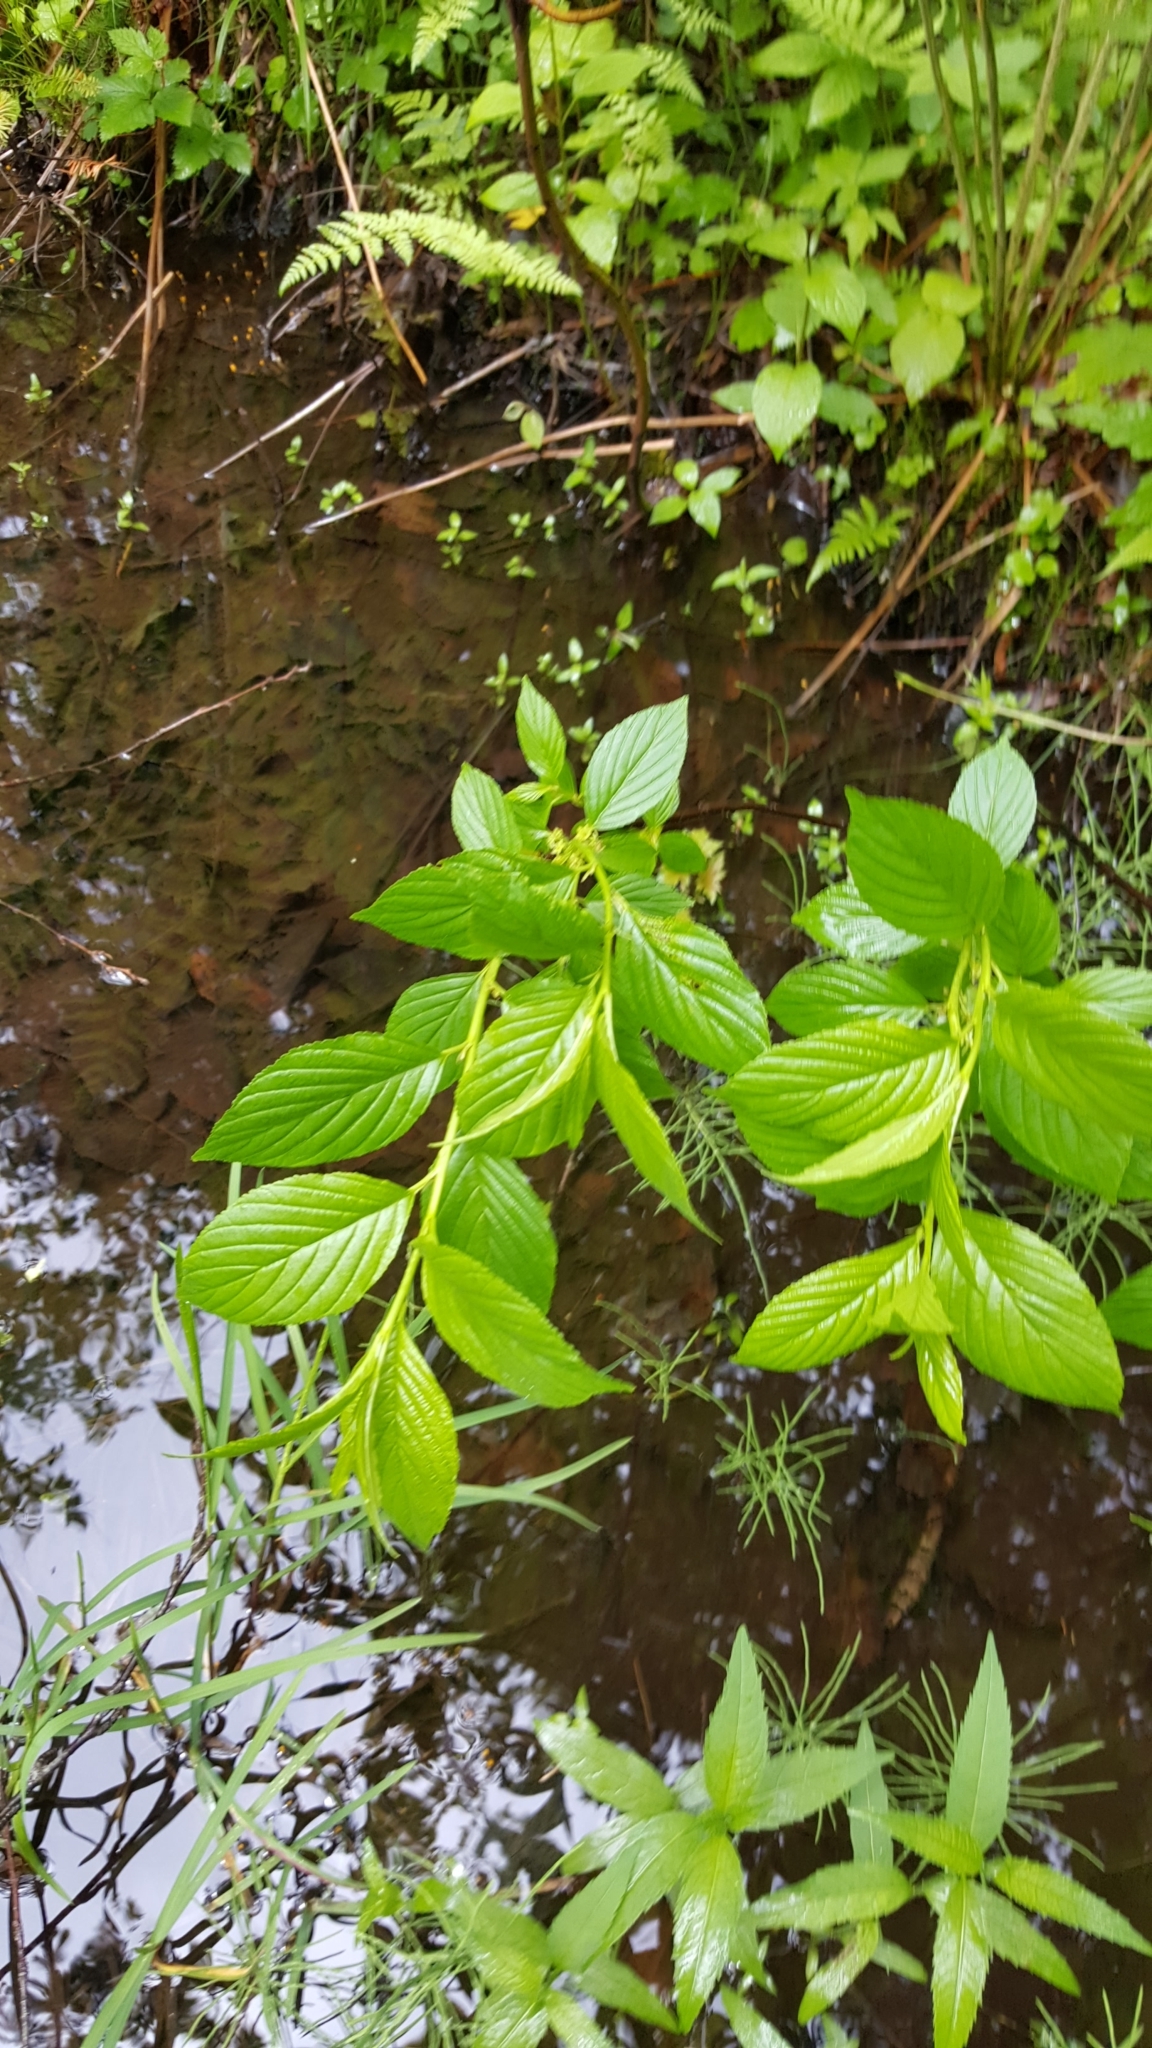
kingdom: Plantae
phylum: Tracheophyta
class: Magnoliopsida
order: Rosales
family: Rhamnaceae
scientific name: Rhamnaceae
